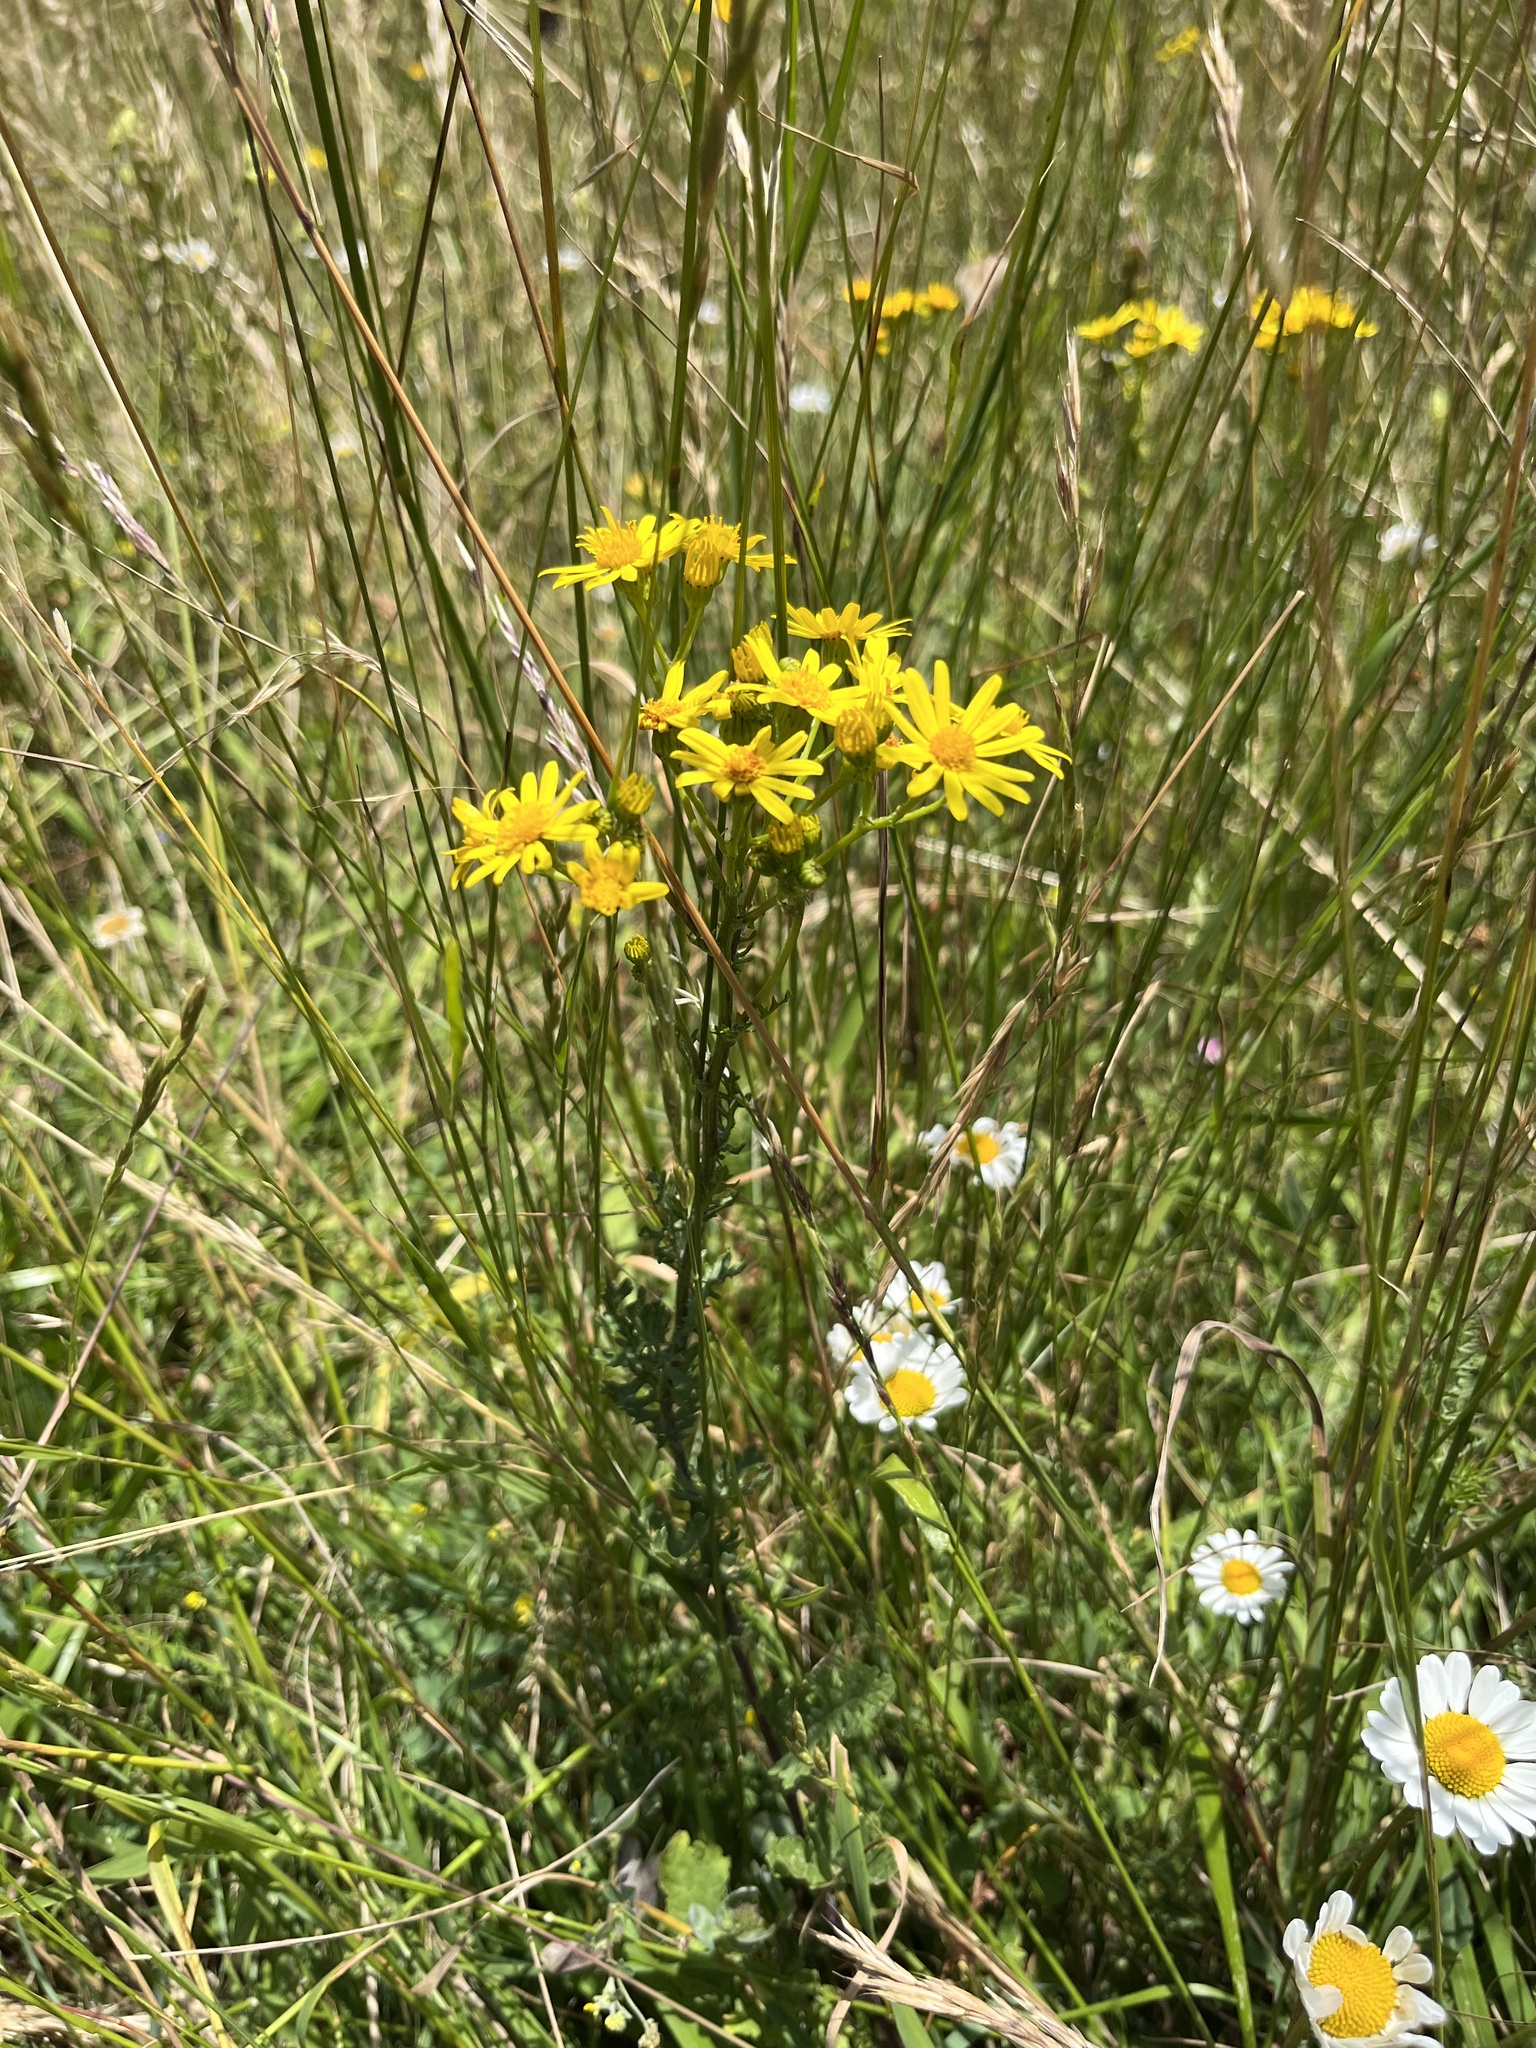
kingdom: Plantae
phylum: Tracheophyta
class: Magnoliopsida
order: Asterales
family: Asteraceae
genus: Jacobaea
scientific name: Jacobaea vulgaris
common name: Stinking willie
